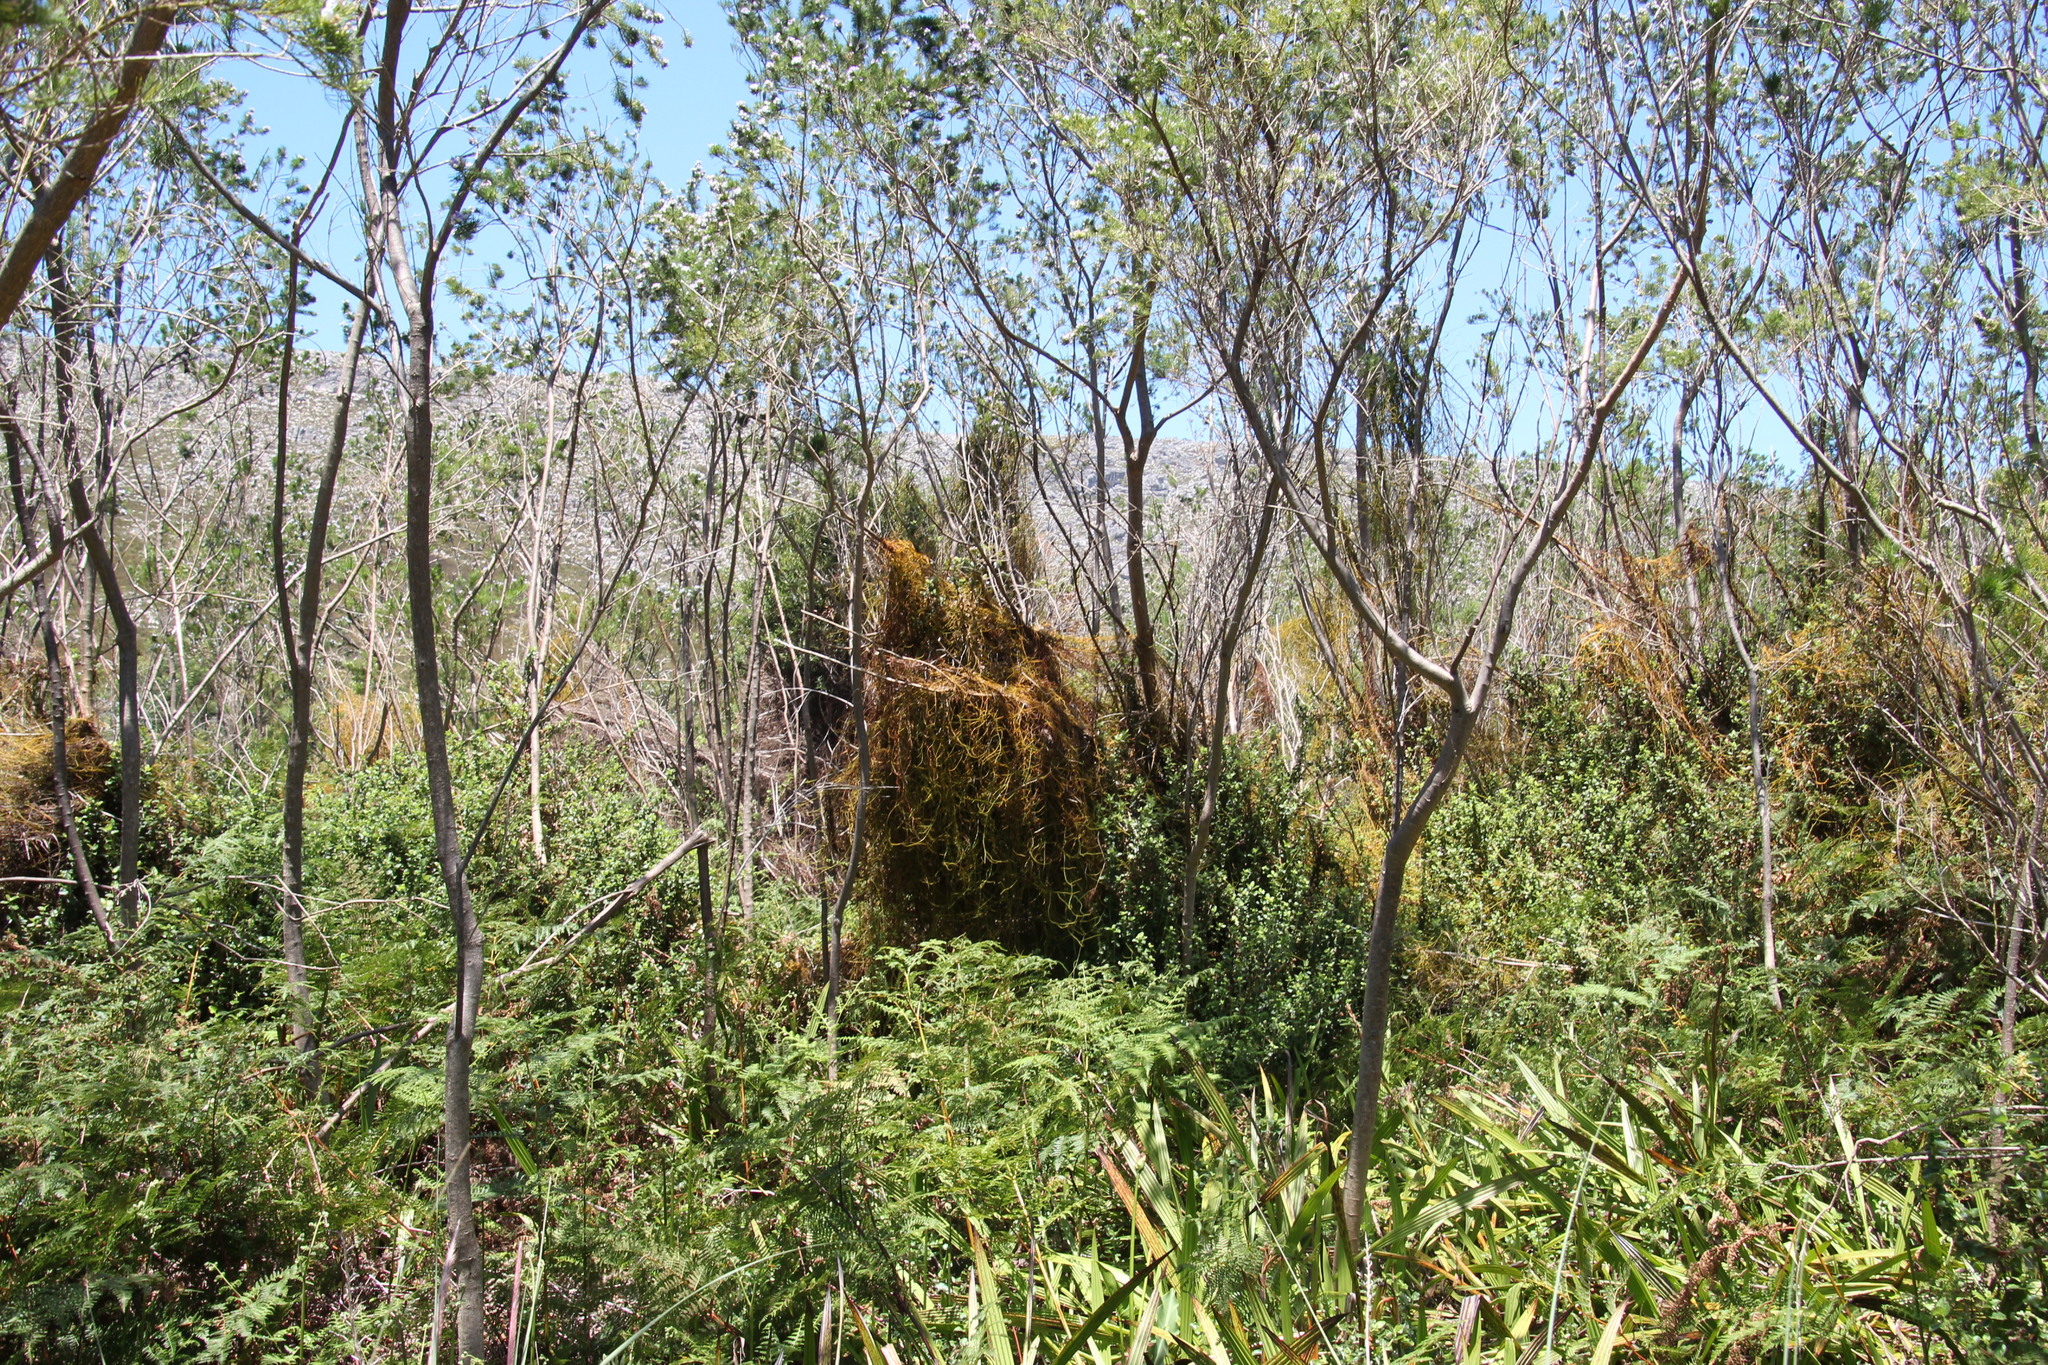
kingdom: Plantae
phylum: Tracheophyta
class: Magnoliopsida
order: Laurales
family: Lauraceae
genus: Cassytha
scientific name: Cassytha ciliolata
